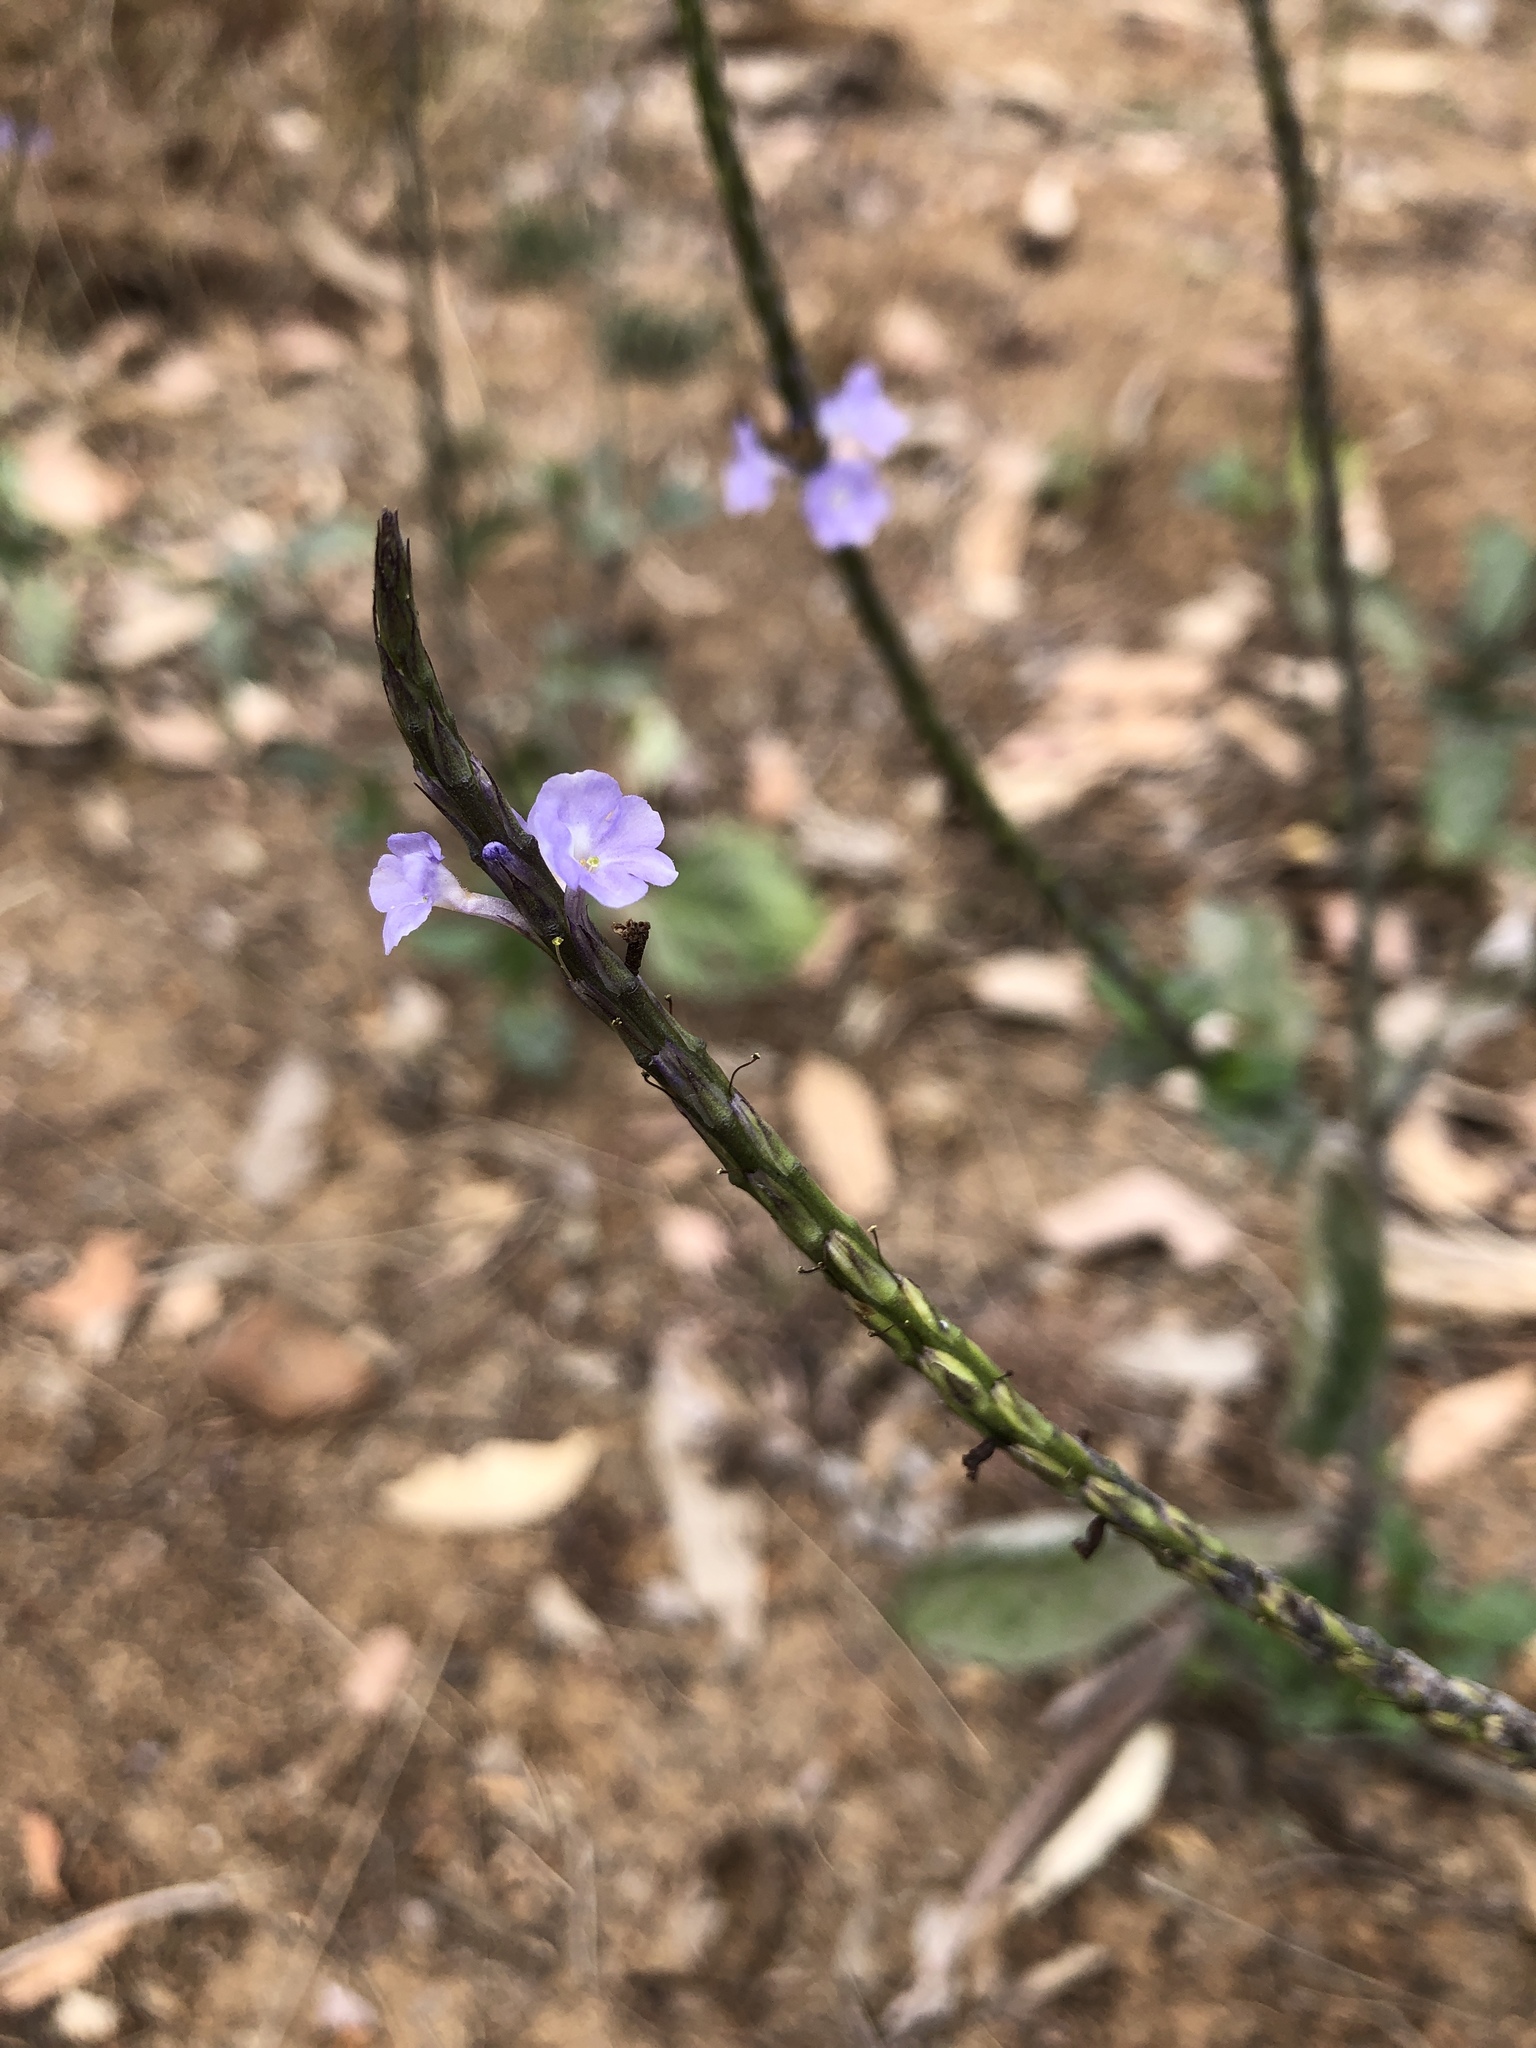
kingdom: Plantae
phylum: Tracheophyta
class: Magnoliopsida
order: Lamiales
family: Verbenaceae
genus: Stachytarpheta
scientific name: Stachytarpheta jamaicensis
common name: Light-blue snakeweed
